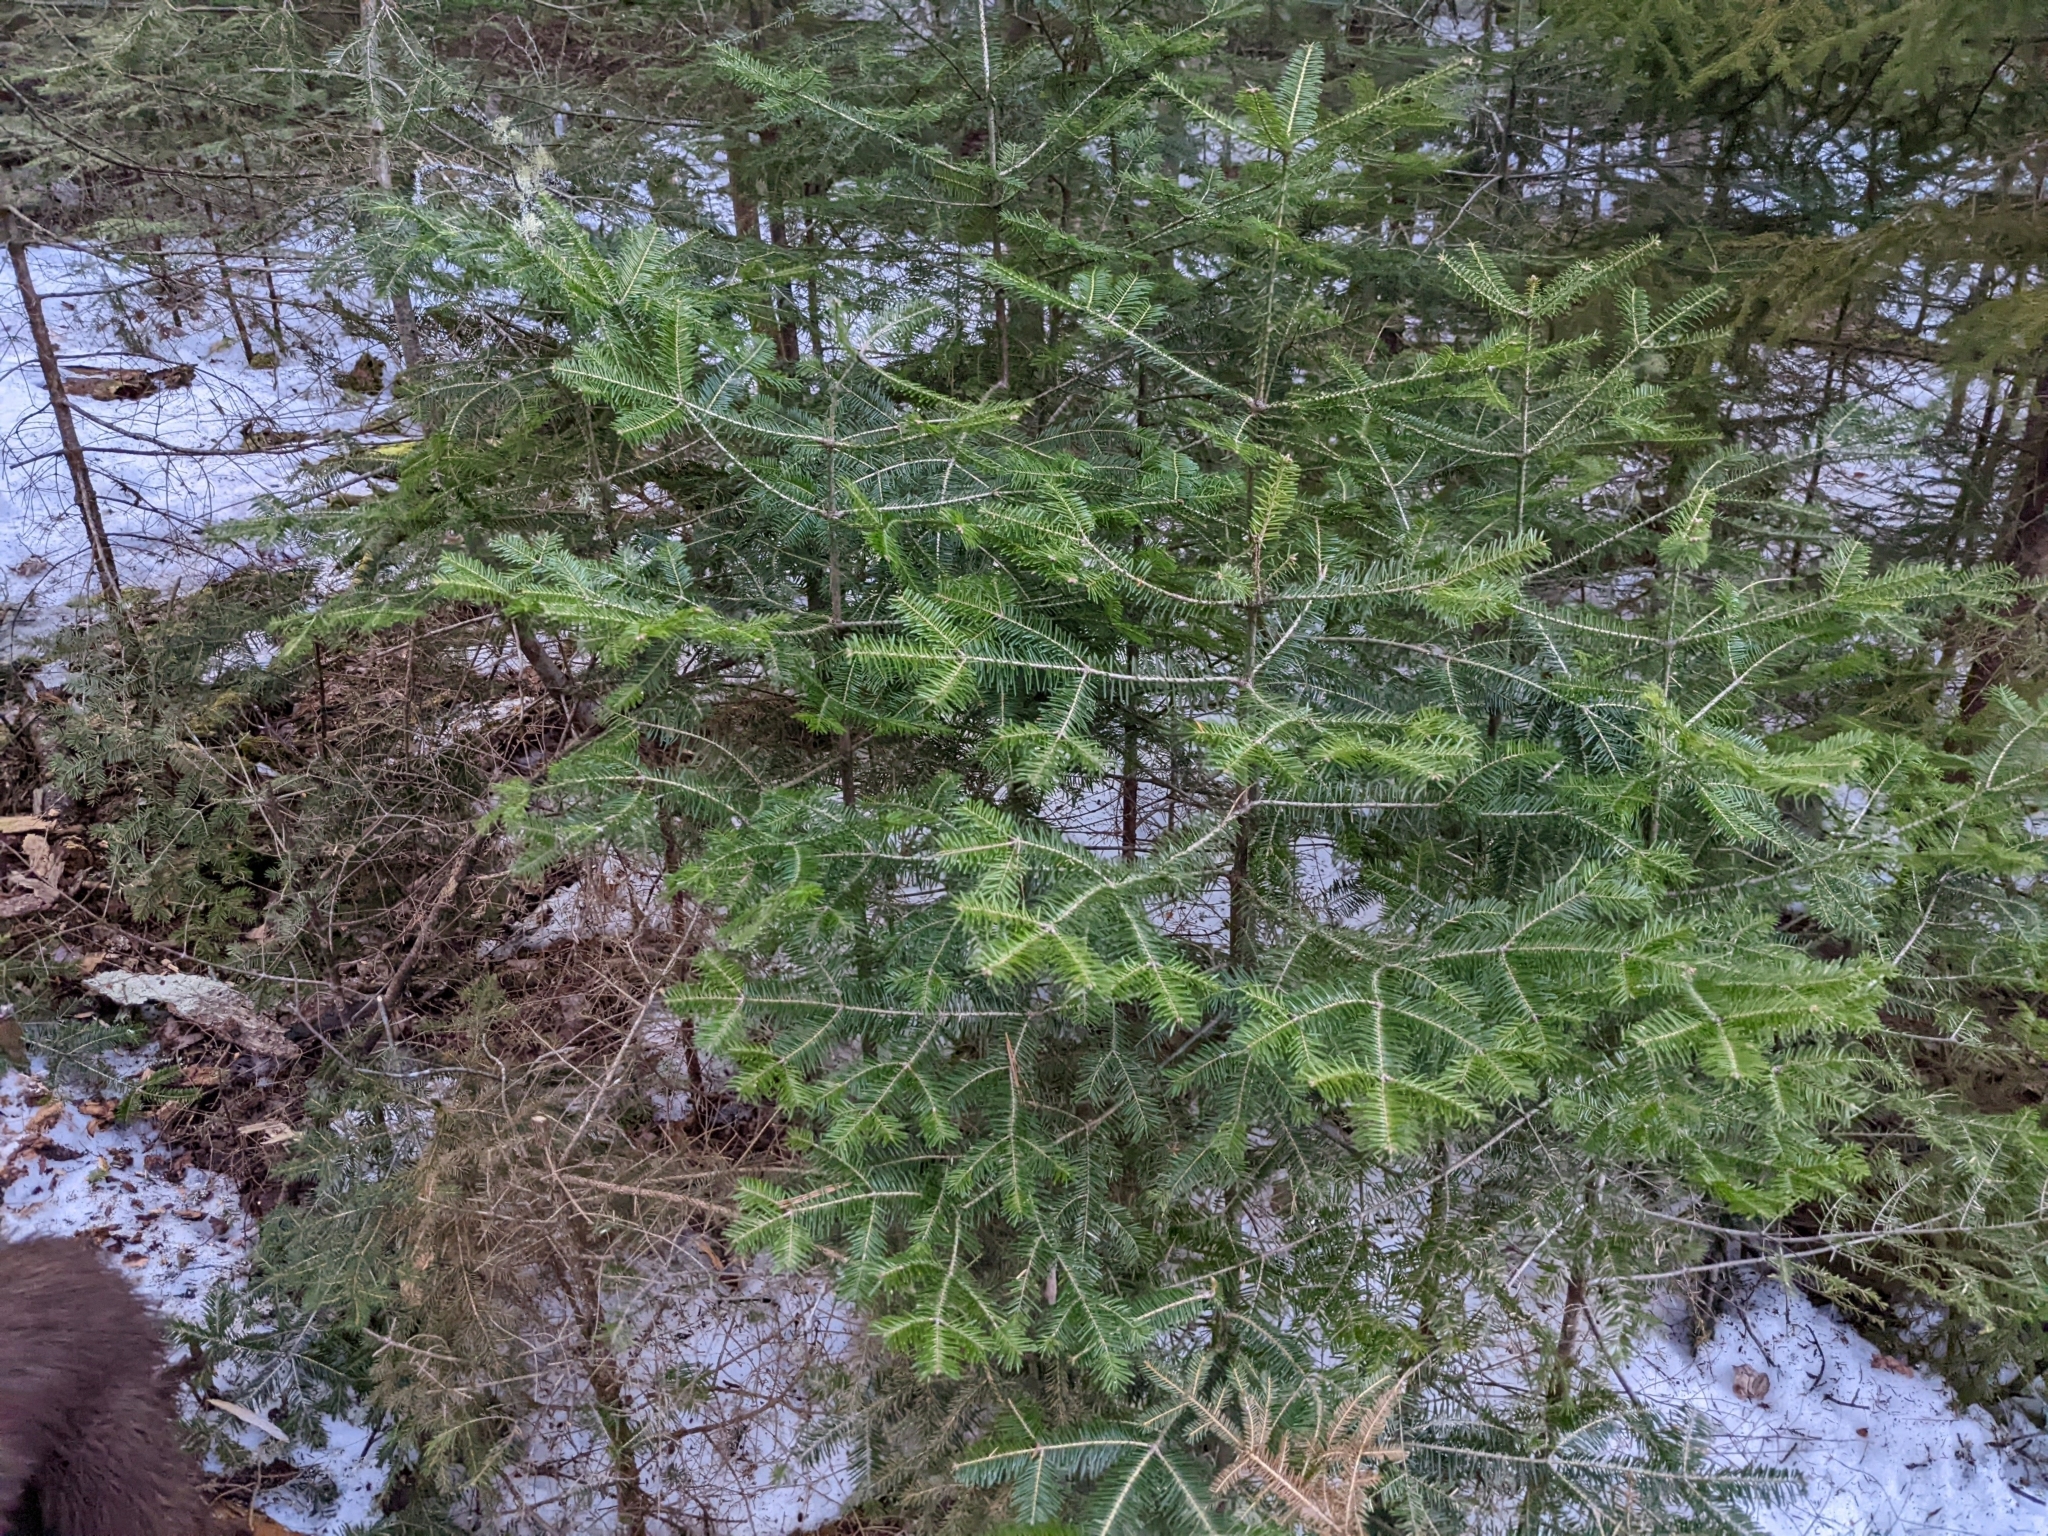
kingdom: Plantae
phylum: Tracheophyta
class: Pinopsida
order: Pinales
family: Pinaceae
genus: Abies
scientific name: Abies balsamea
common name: Balsam fir
